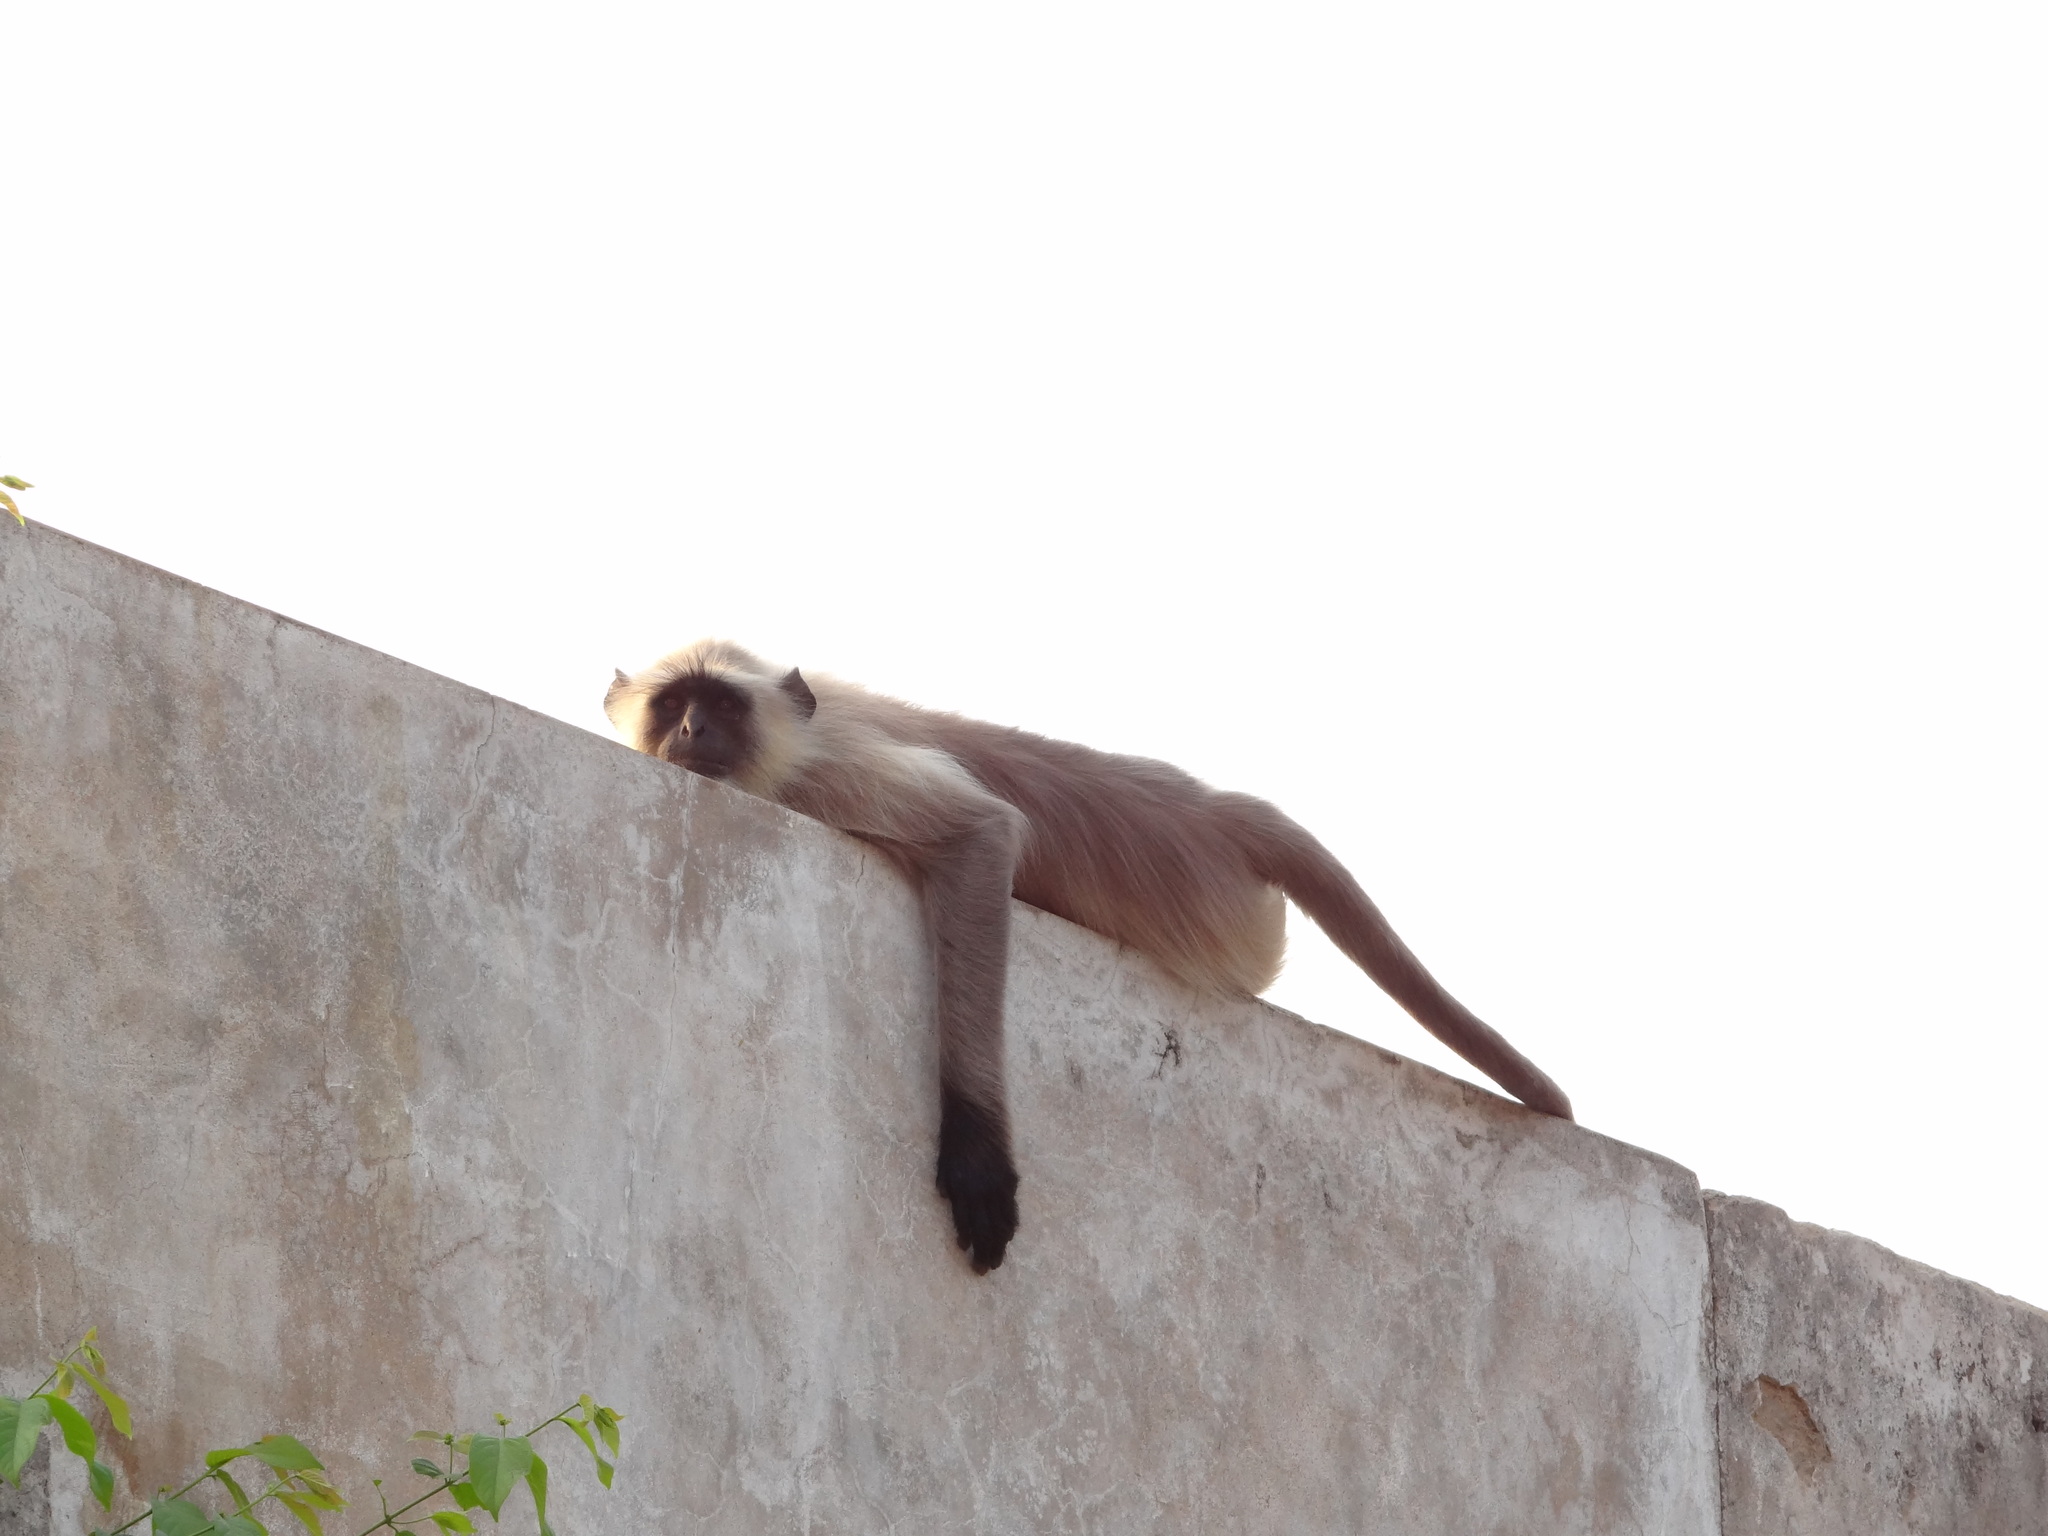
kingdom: Animalia
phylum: Chordata
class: Mammalia
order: Primates
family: Cercopithecidae
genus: Semnopithecus
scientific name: Semnopithecus entellus
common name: Northern plains gray langur
